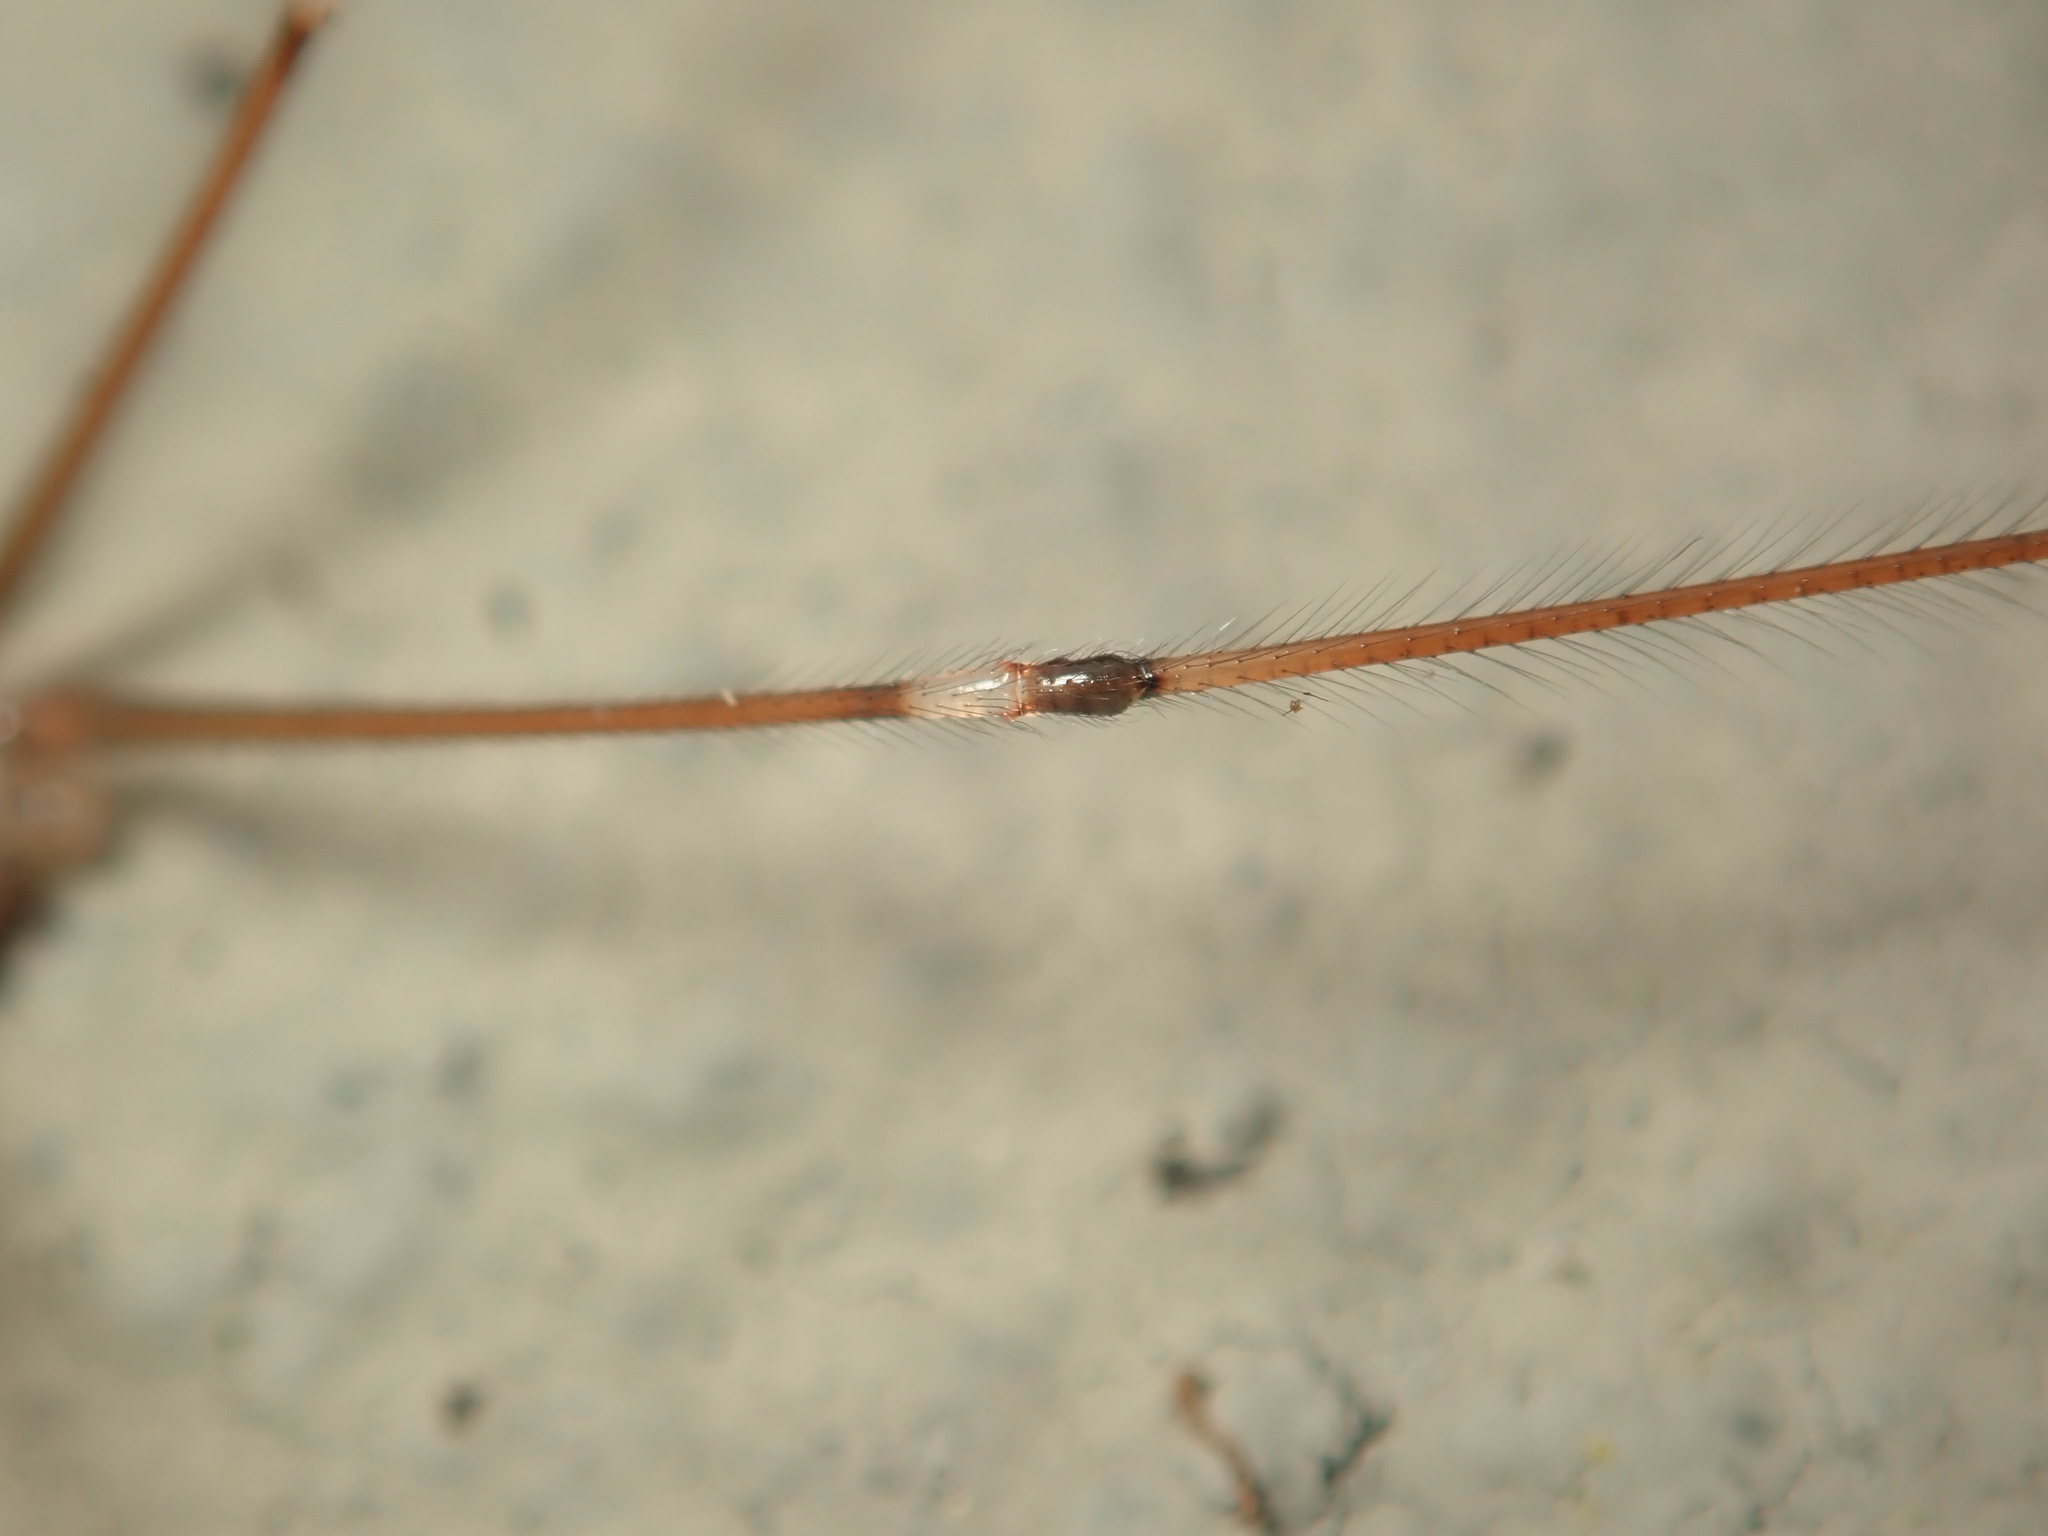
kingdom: Animalia
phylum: Arthropoda
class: Arachnida
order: Araneae
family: Pholcidae
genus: Pholcus
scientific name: Pholcus phalangioides
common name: Longbodied cellar spider
